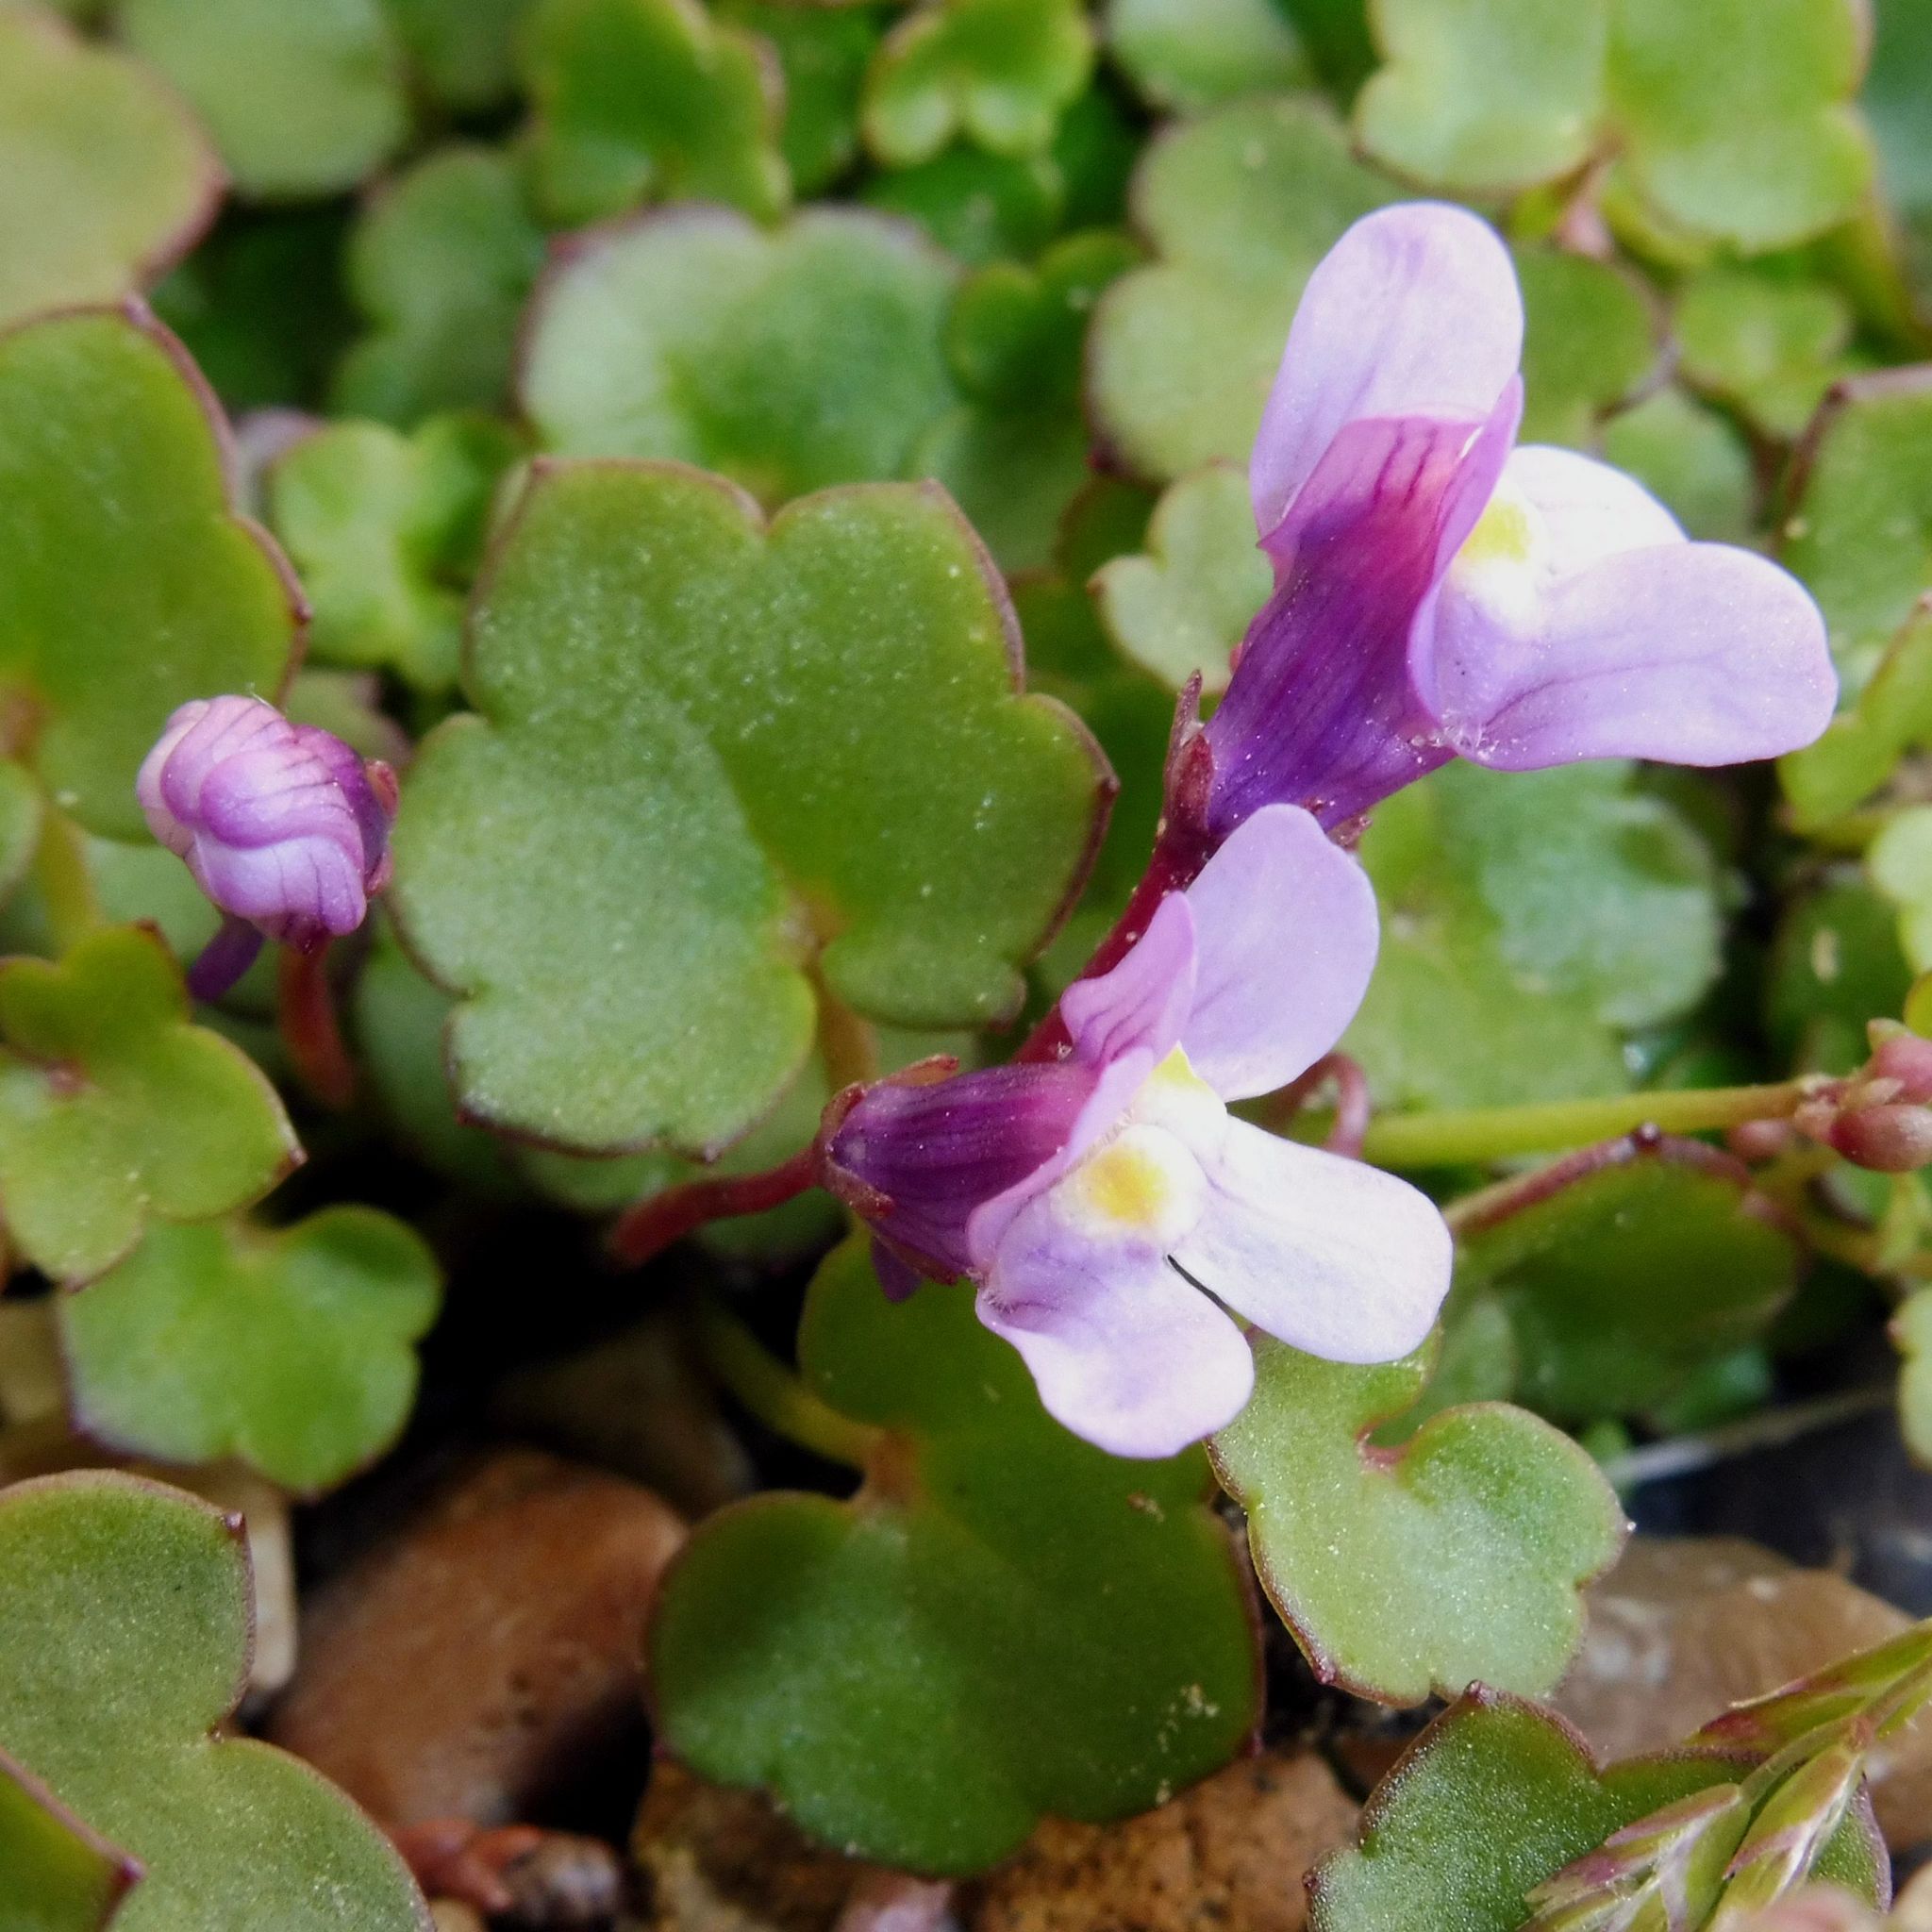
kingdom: Plantae
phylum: Tracheophyta
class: Magnoliopsida
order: Lamiales
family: Plantaginaceae
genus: Cymbalaria
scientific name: Cymbalaria muralis
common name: Ivy-leaved toadflax
